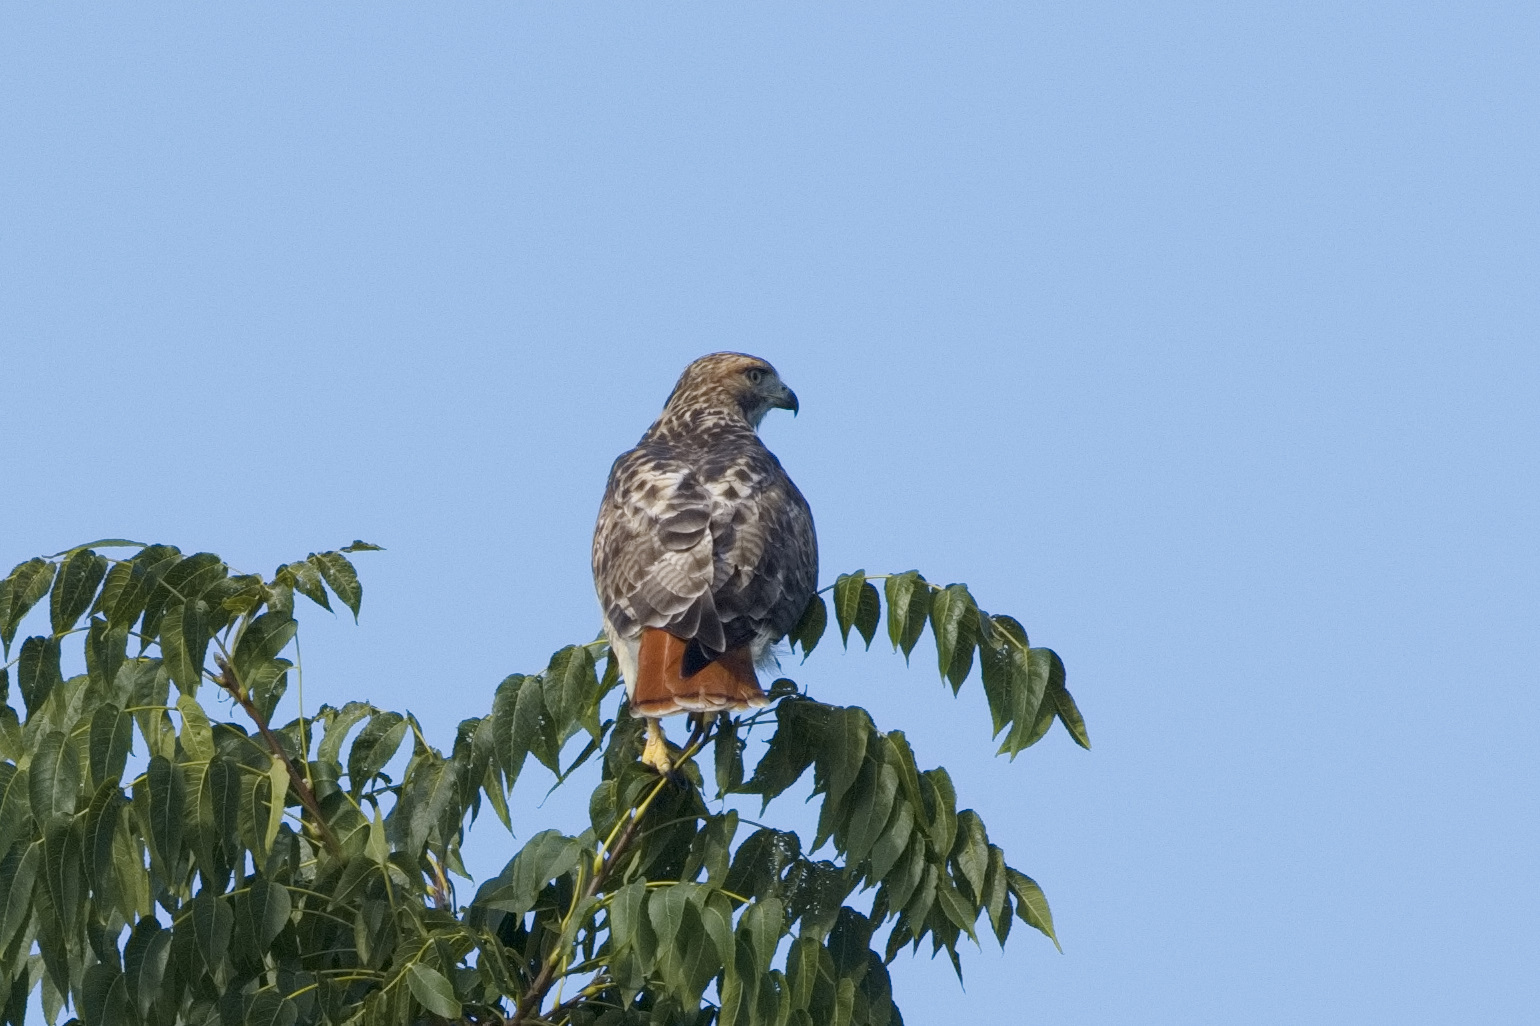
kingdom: Animalia
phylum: Chordata
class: Aves
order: Accipitriformes
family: Accipitridae
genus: Buteo
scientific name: Buteo jamaicensis
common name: Red-tailed hawk
